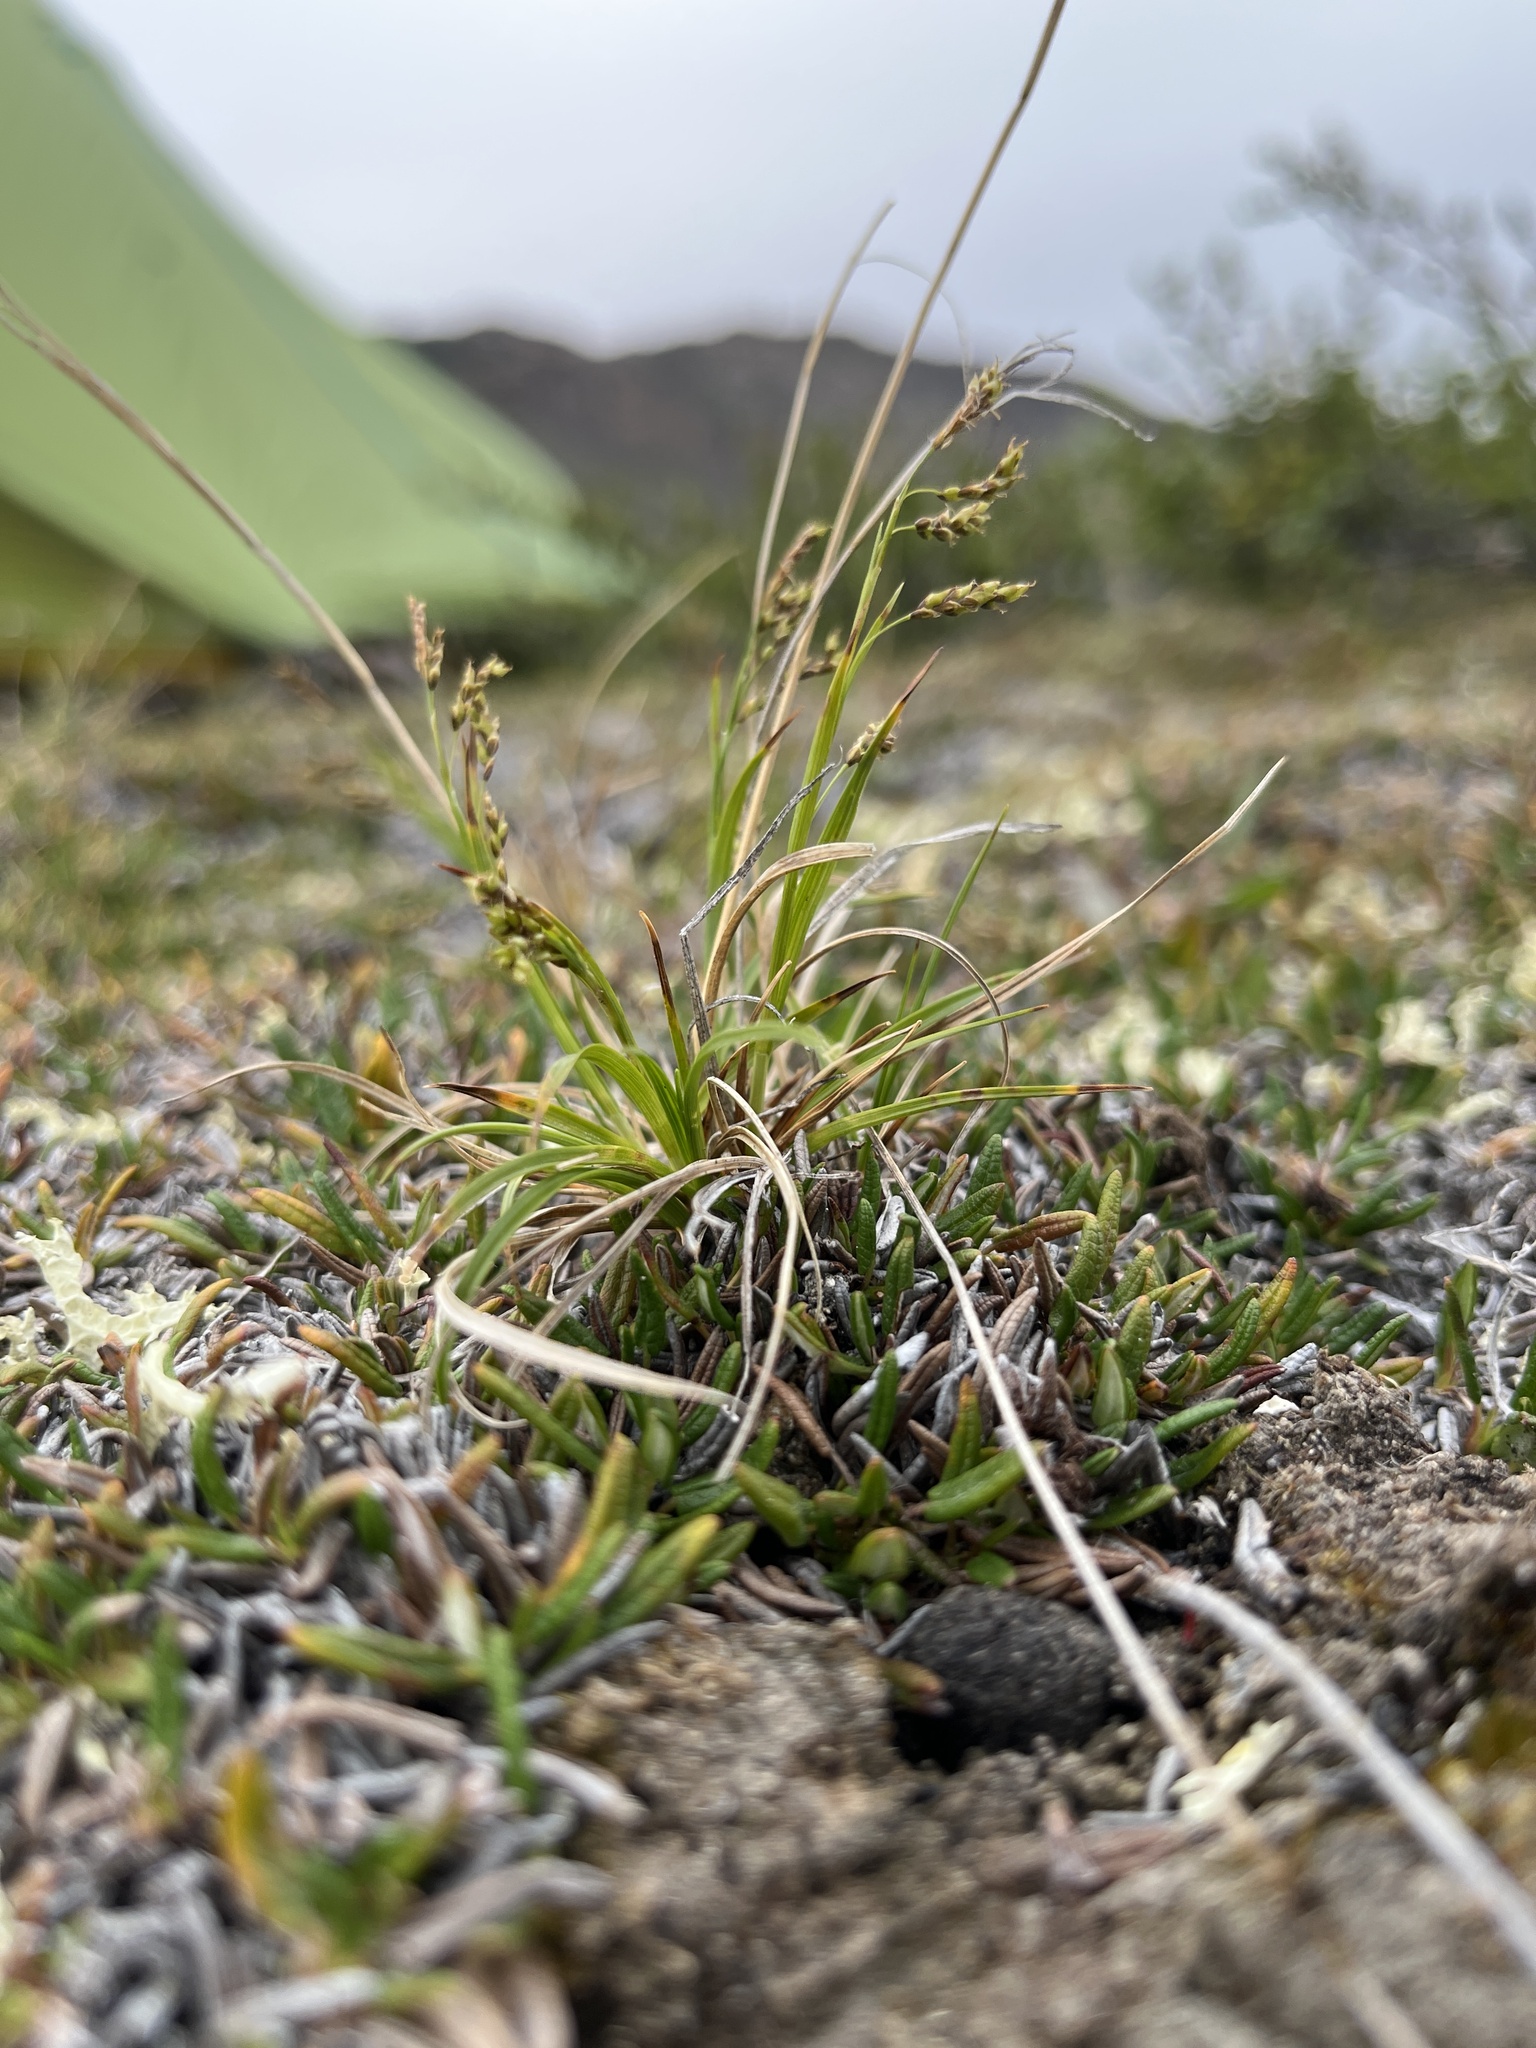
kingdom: Plantae
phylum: Tracheophyta
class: Liliopsida
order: Poales
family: Cyperaceae
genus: Carex
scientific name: Carex capillaris
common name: Hair sedge
